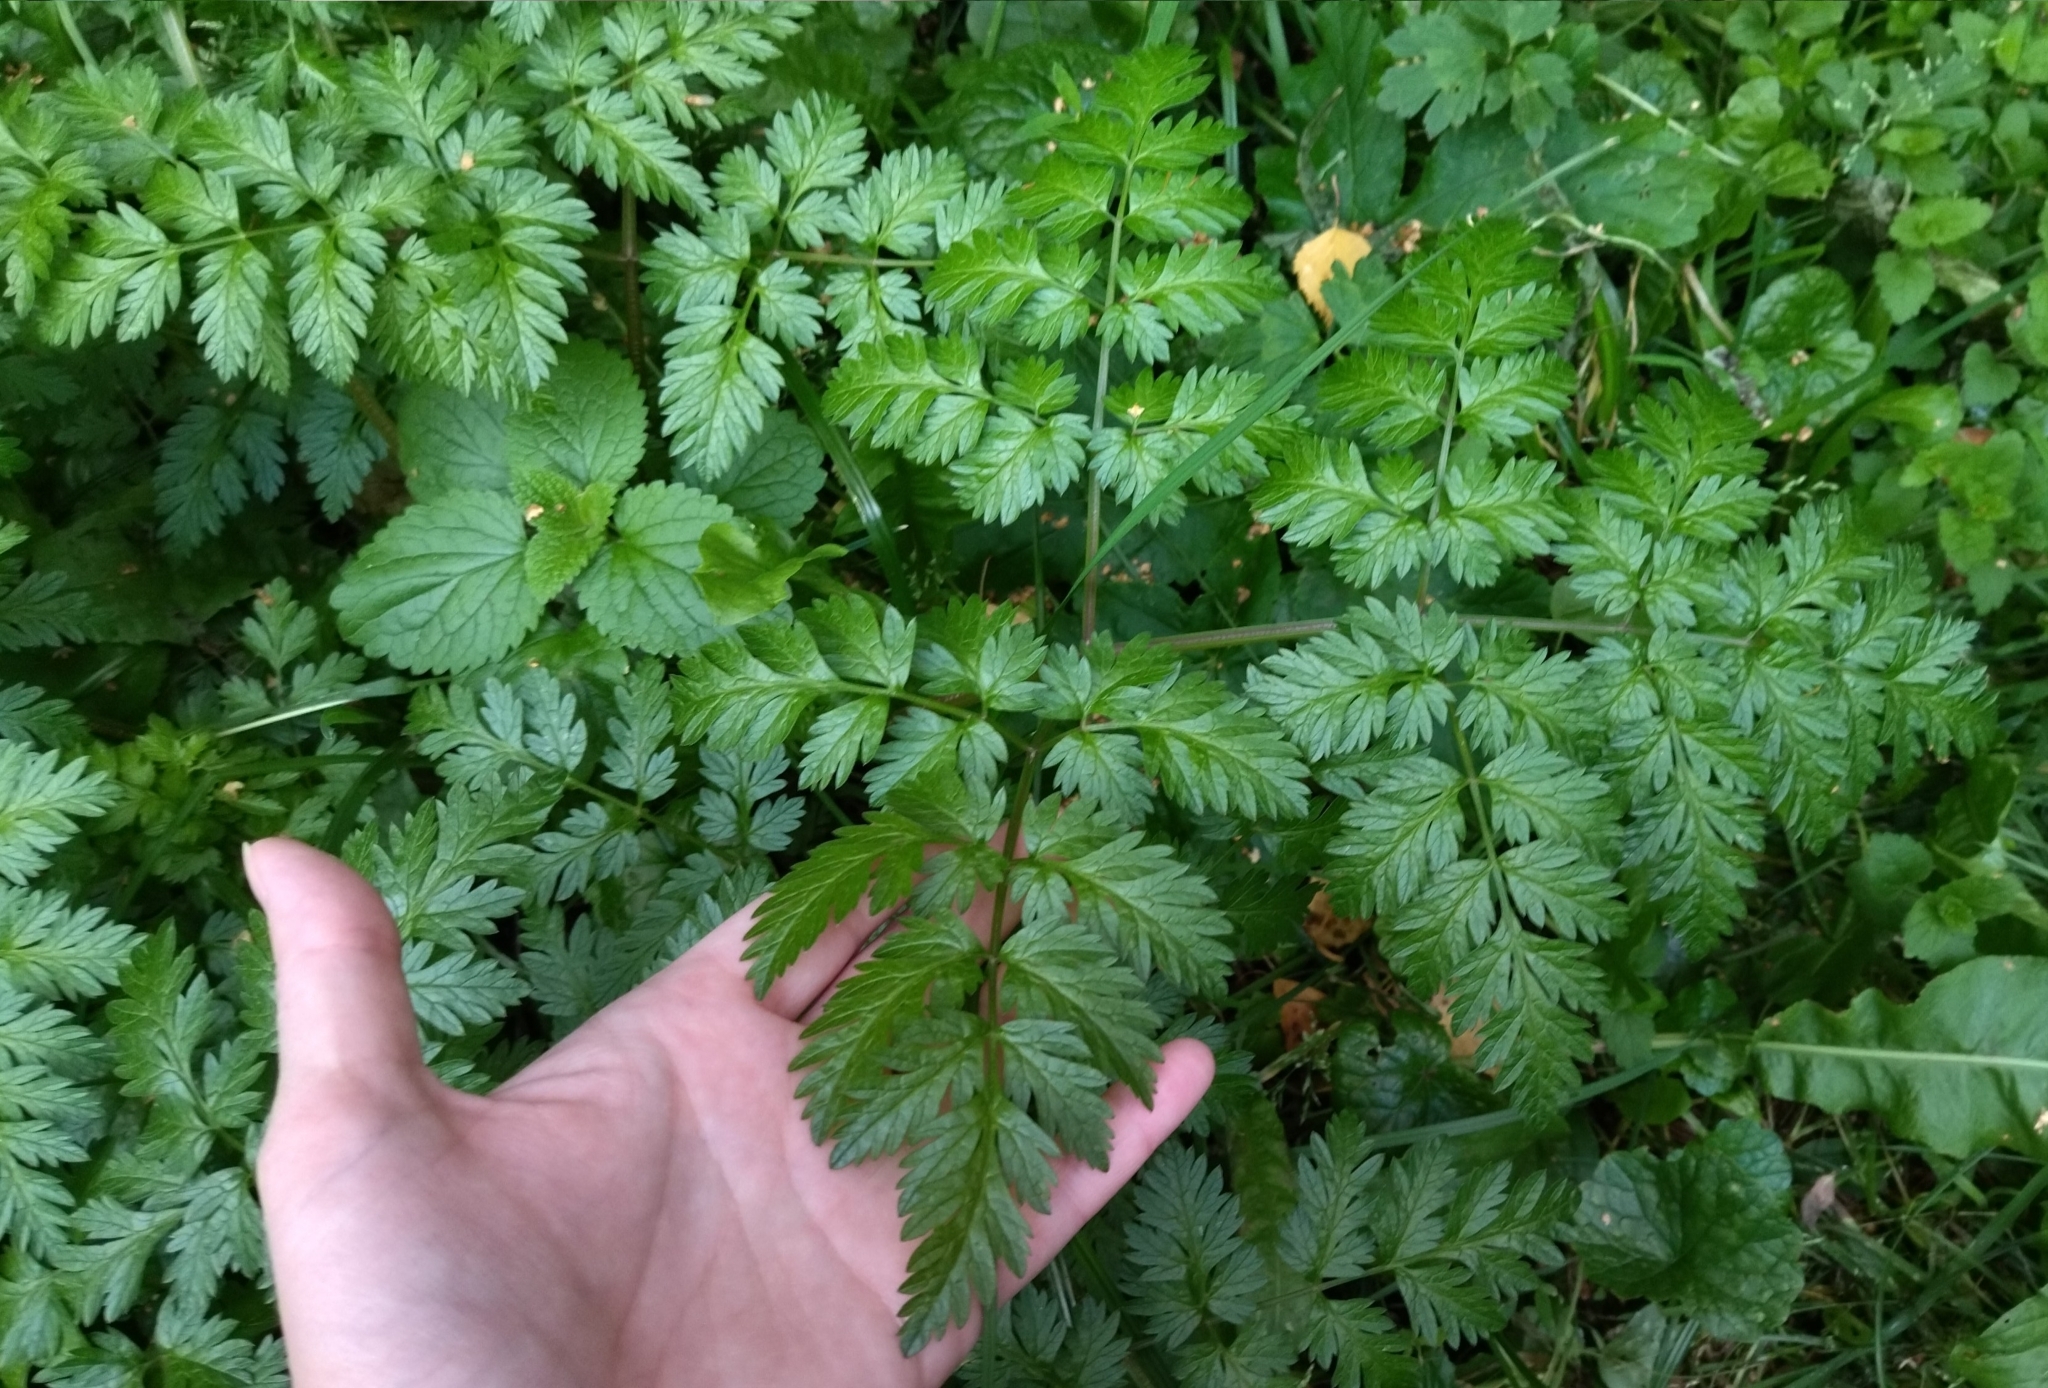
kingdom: Plantae
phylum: Tracheophyta
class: Magnoliopsida
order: Apiales
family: Apiaceae
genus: Anthriscus
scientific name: Anthriscus sylvestris
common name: Cow parsley
